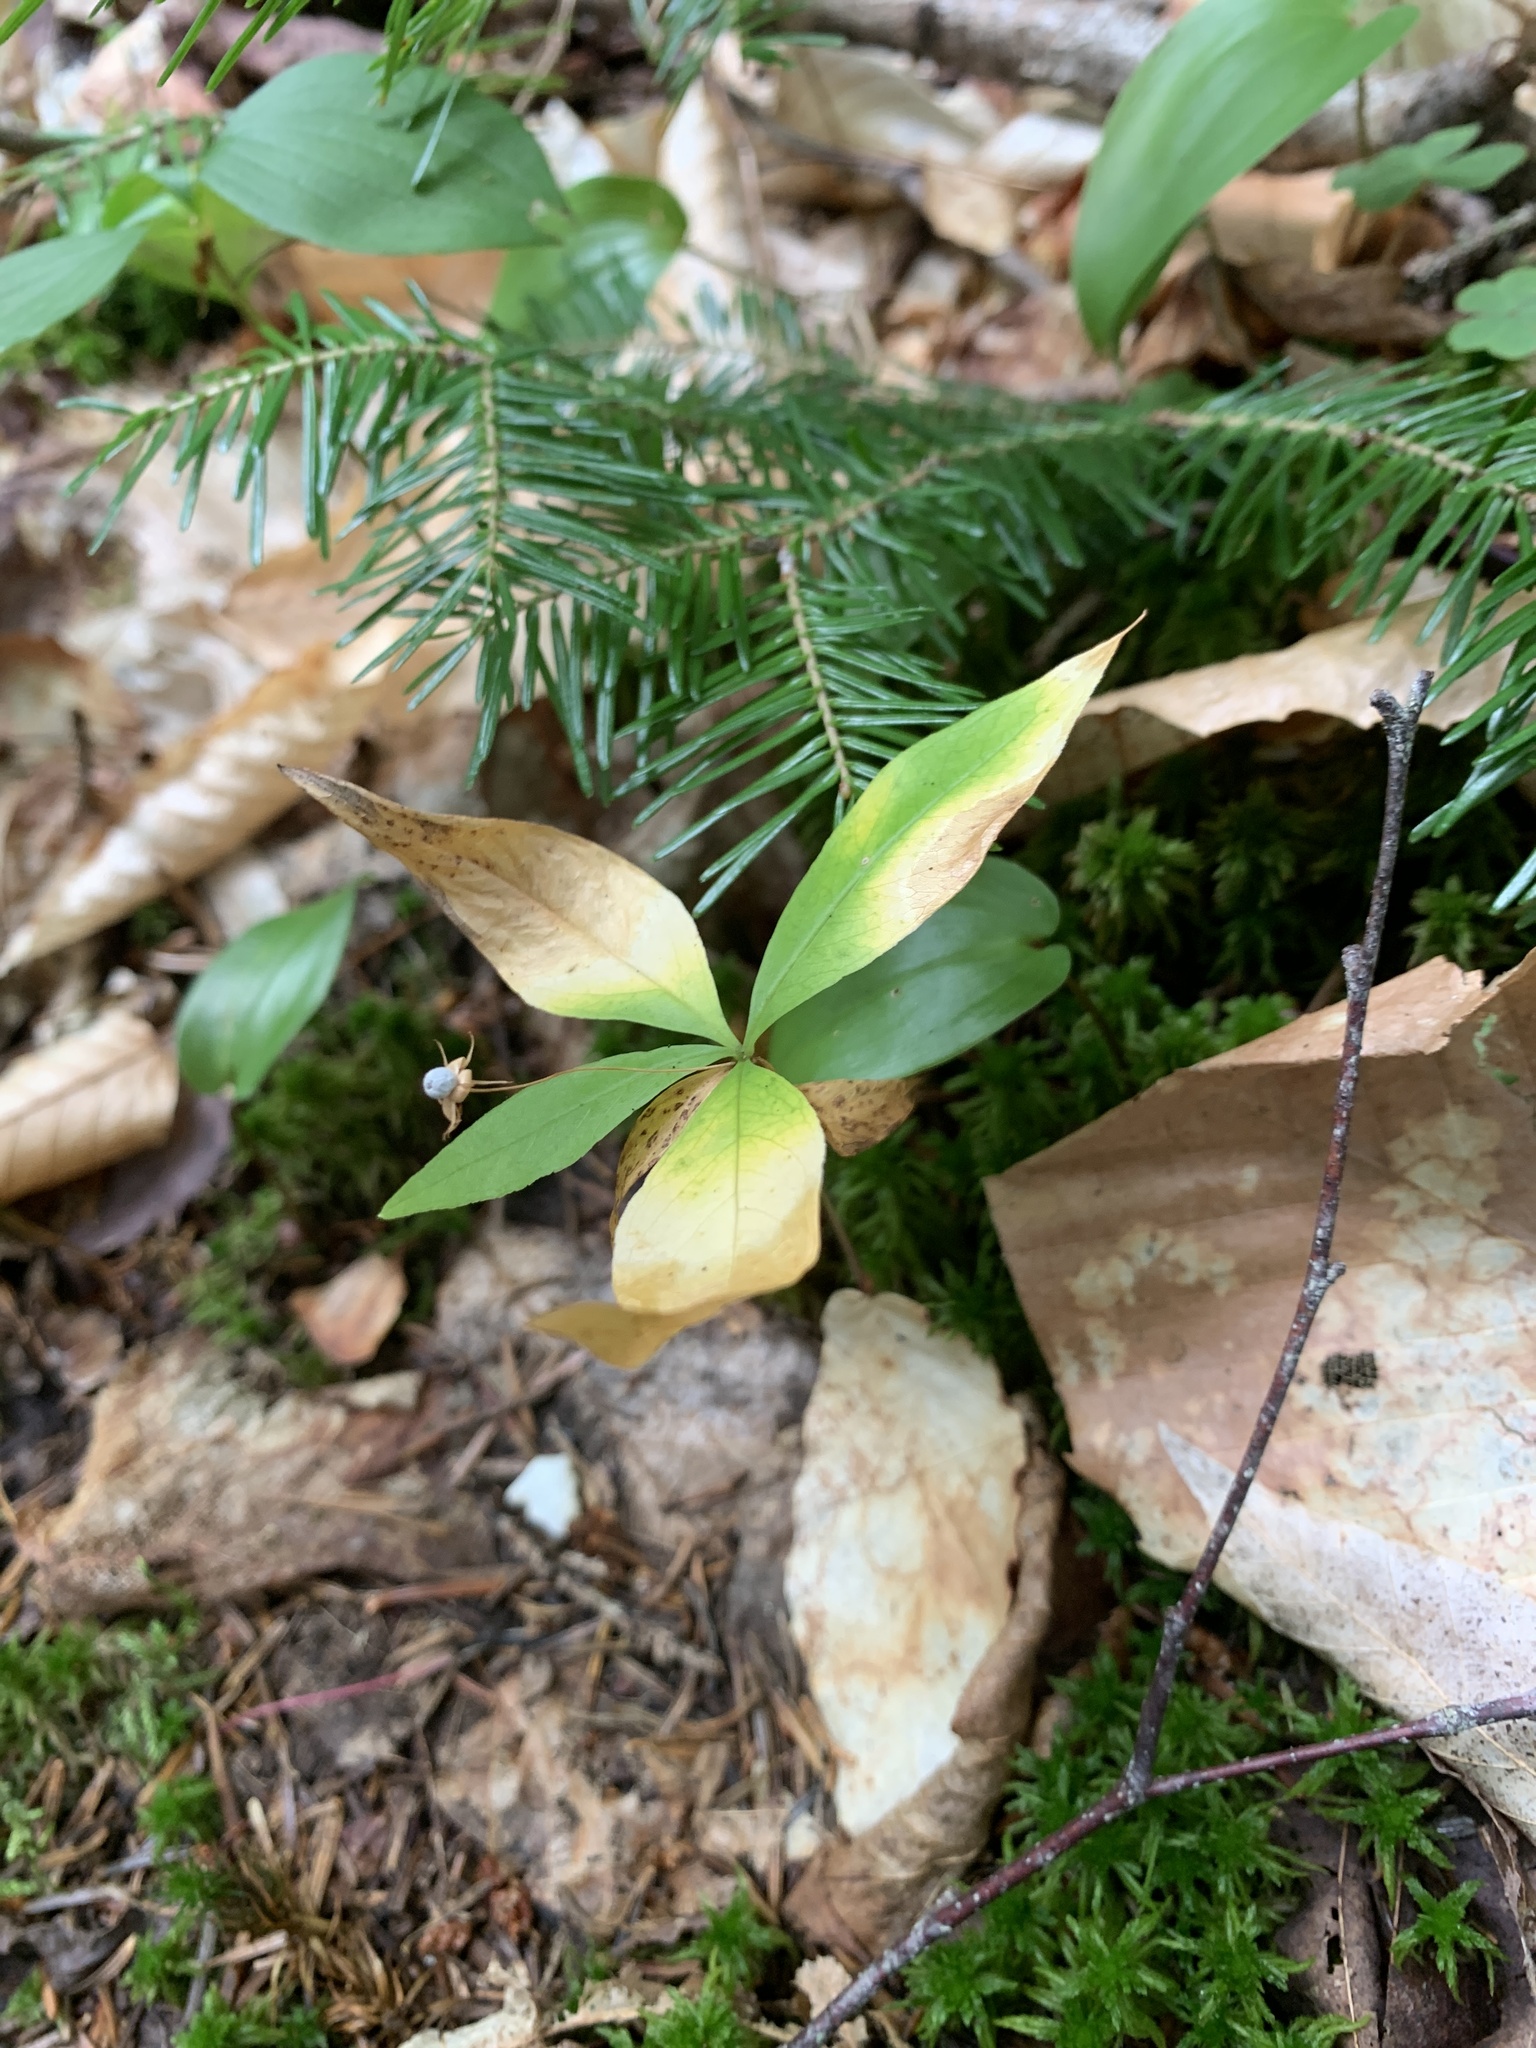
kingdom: Plantae
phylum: Tracheophyta
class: Magnoliopsida
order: Ericales
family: Primulaceae
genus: Lysimachia
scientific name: Lysimachia borealis
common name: American starflower
